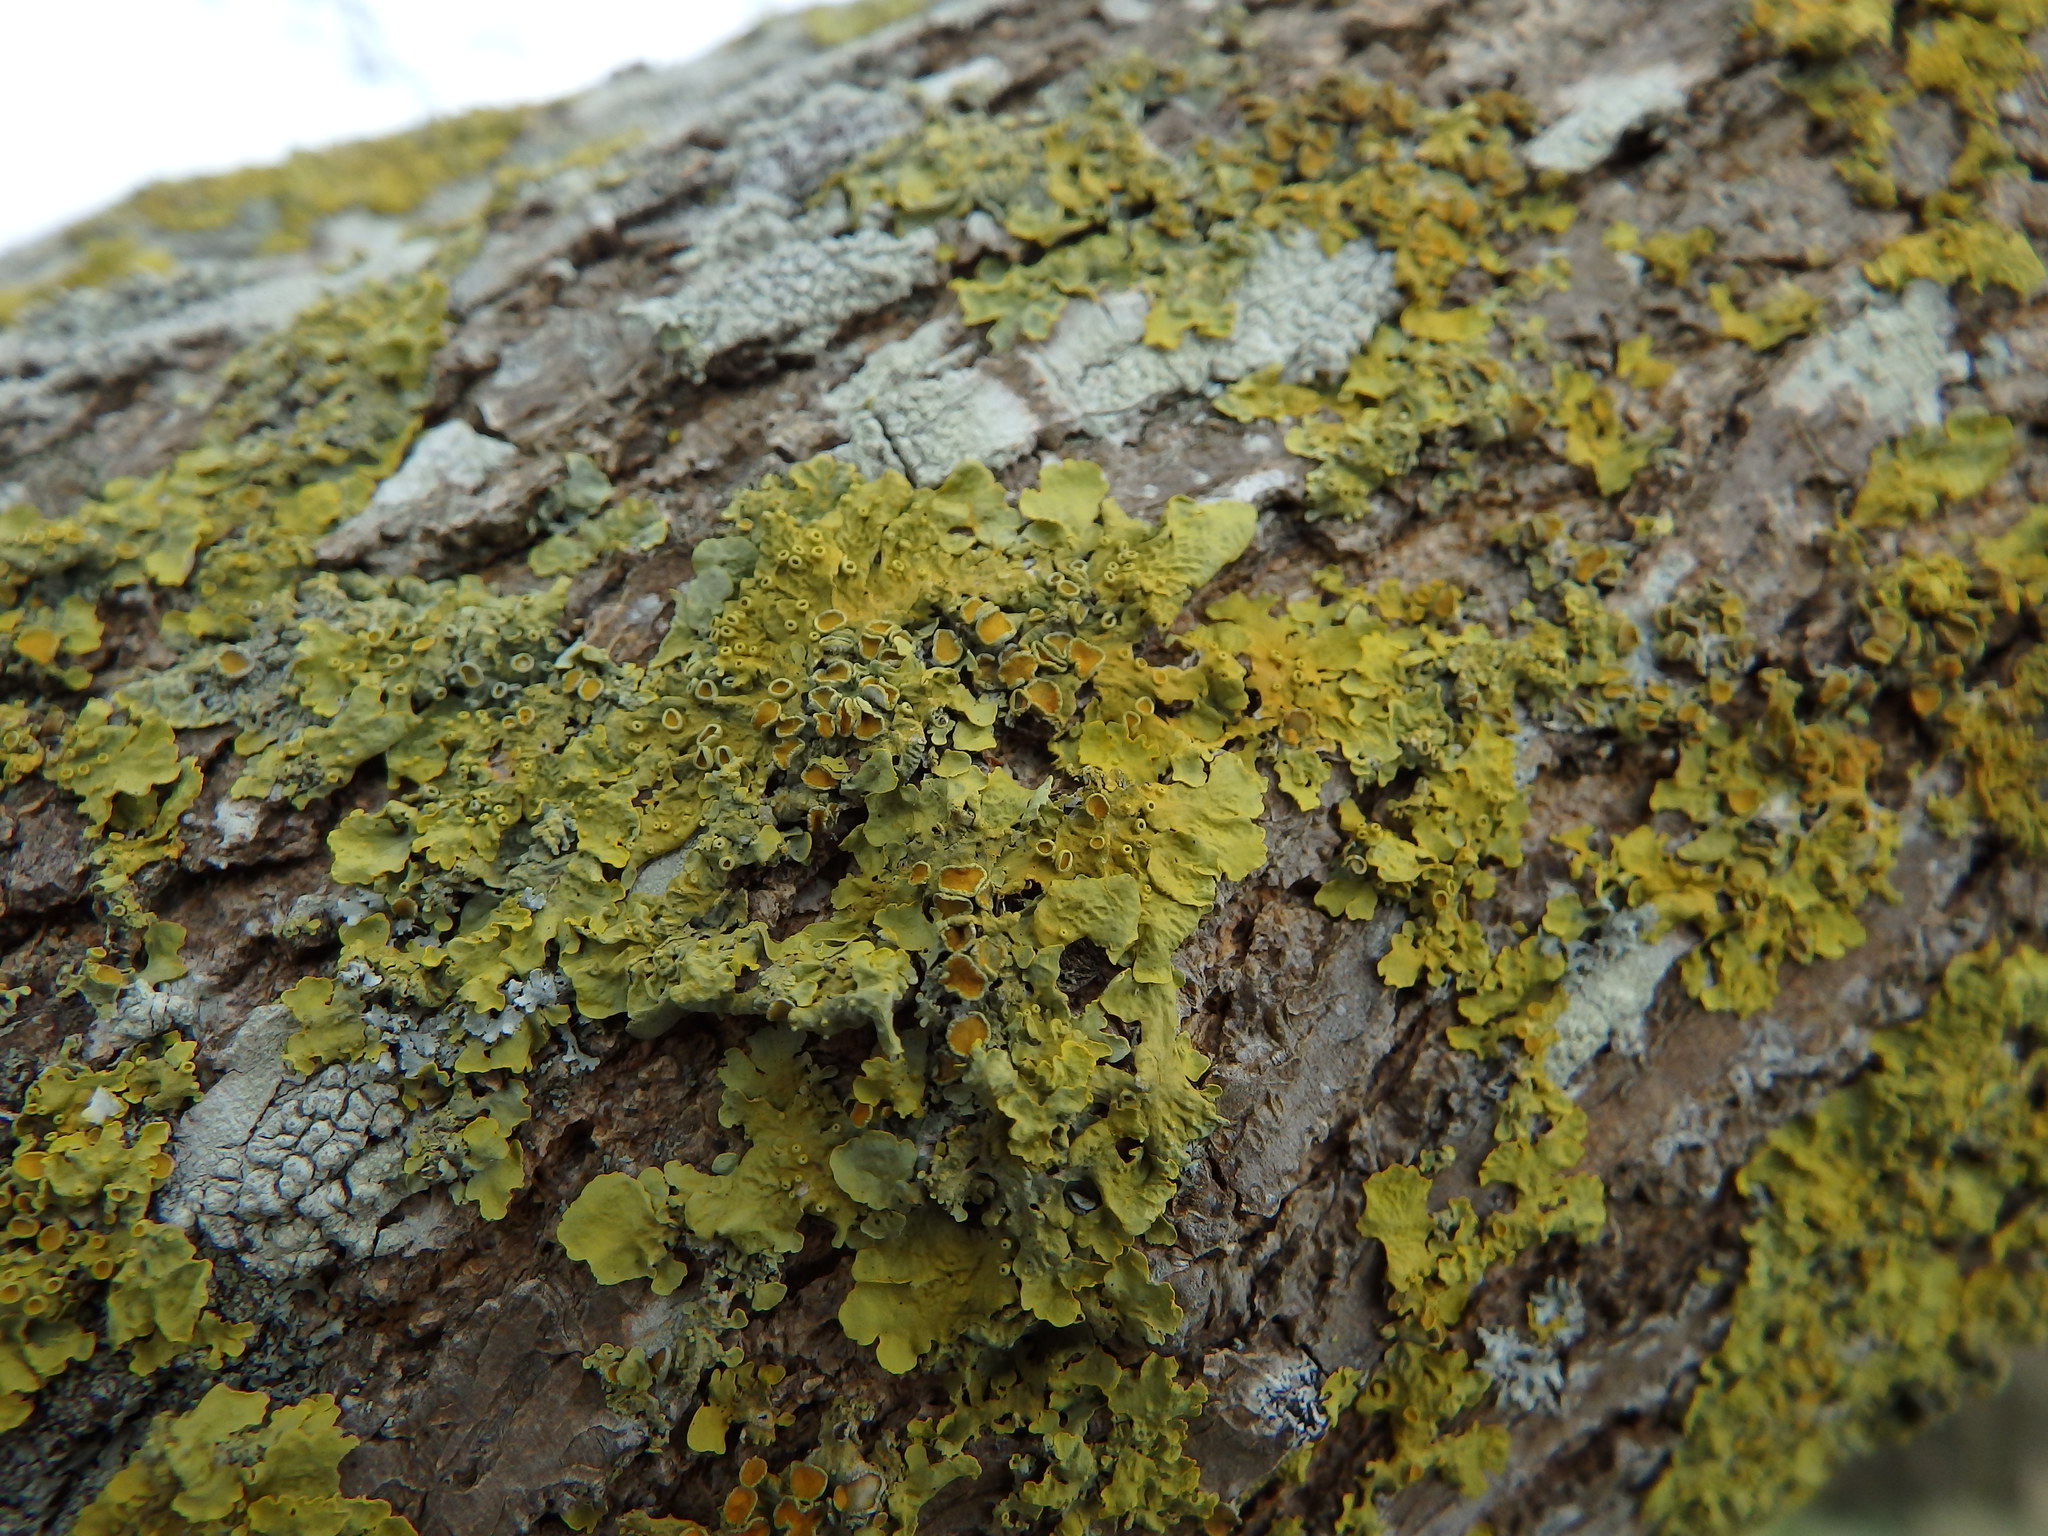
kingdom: Fungi
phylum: Ascomycota
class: Lecanoromycetes
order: Teloschistales
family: Teloschistaceae
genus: Xanthoria
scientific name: Xanthoria parietina
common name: Common orange lichen
